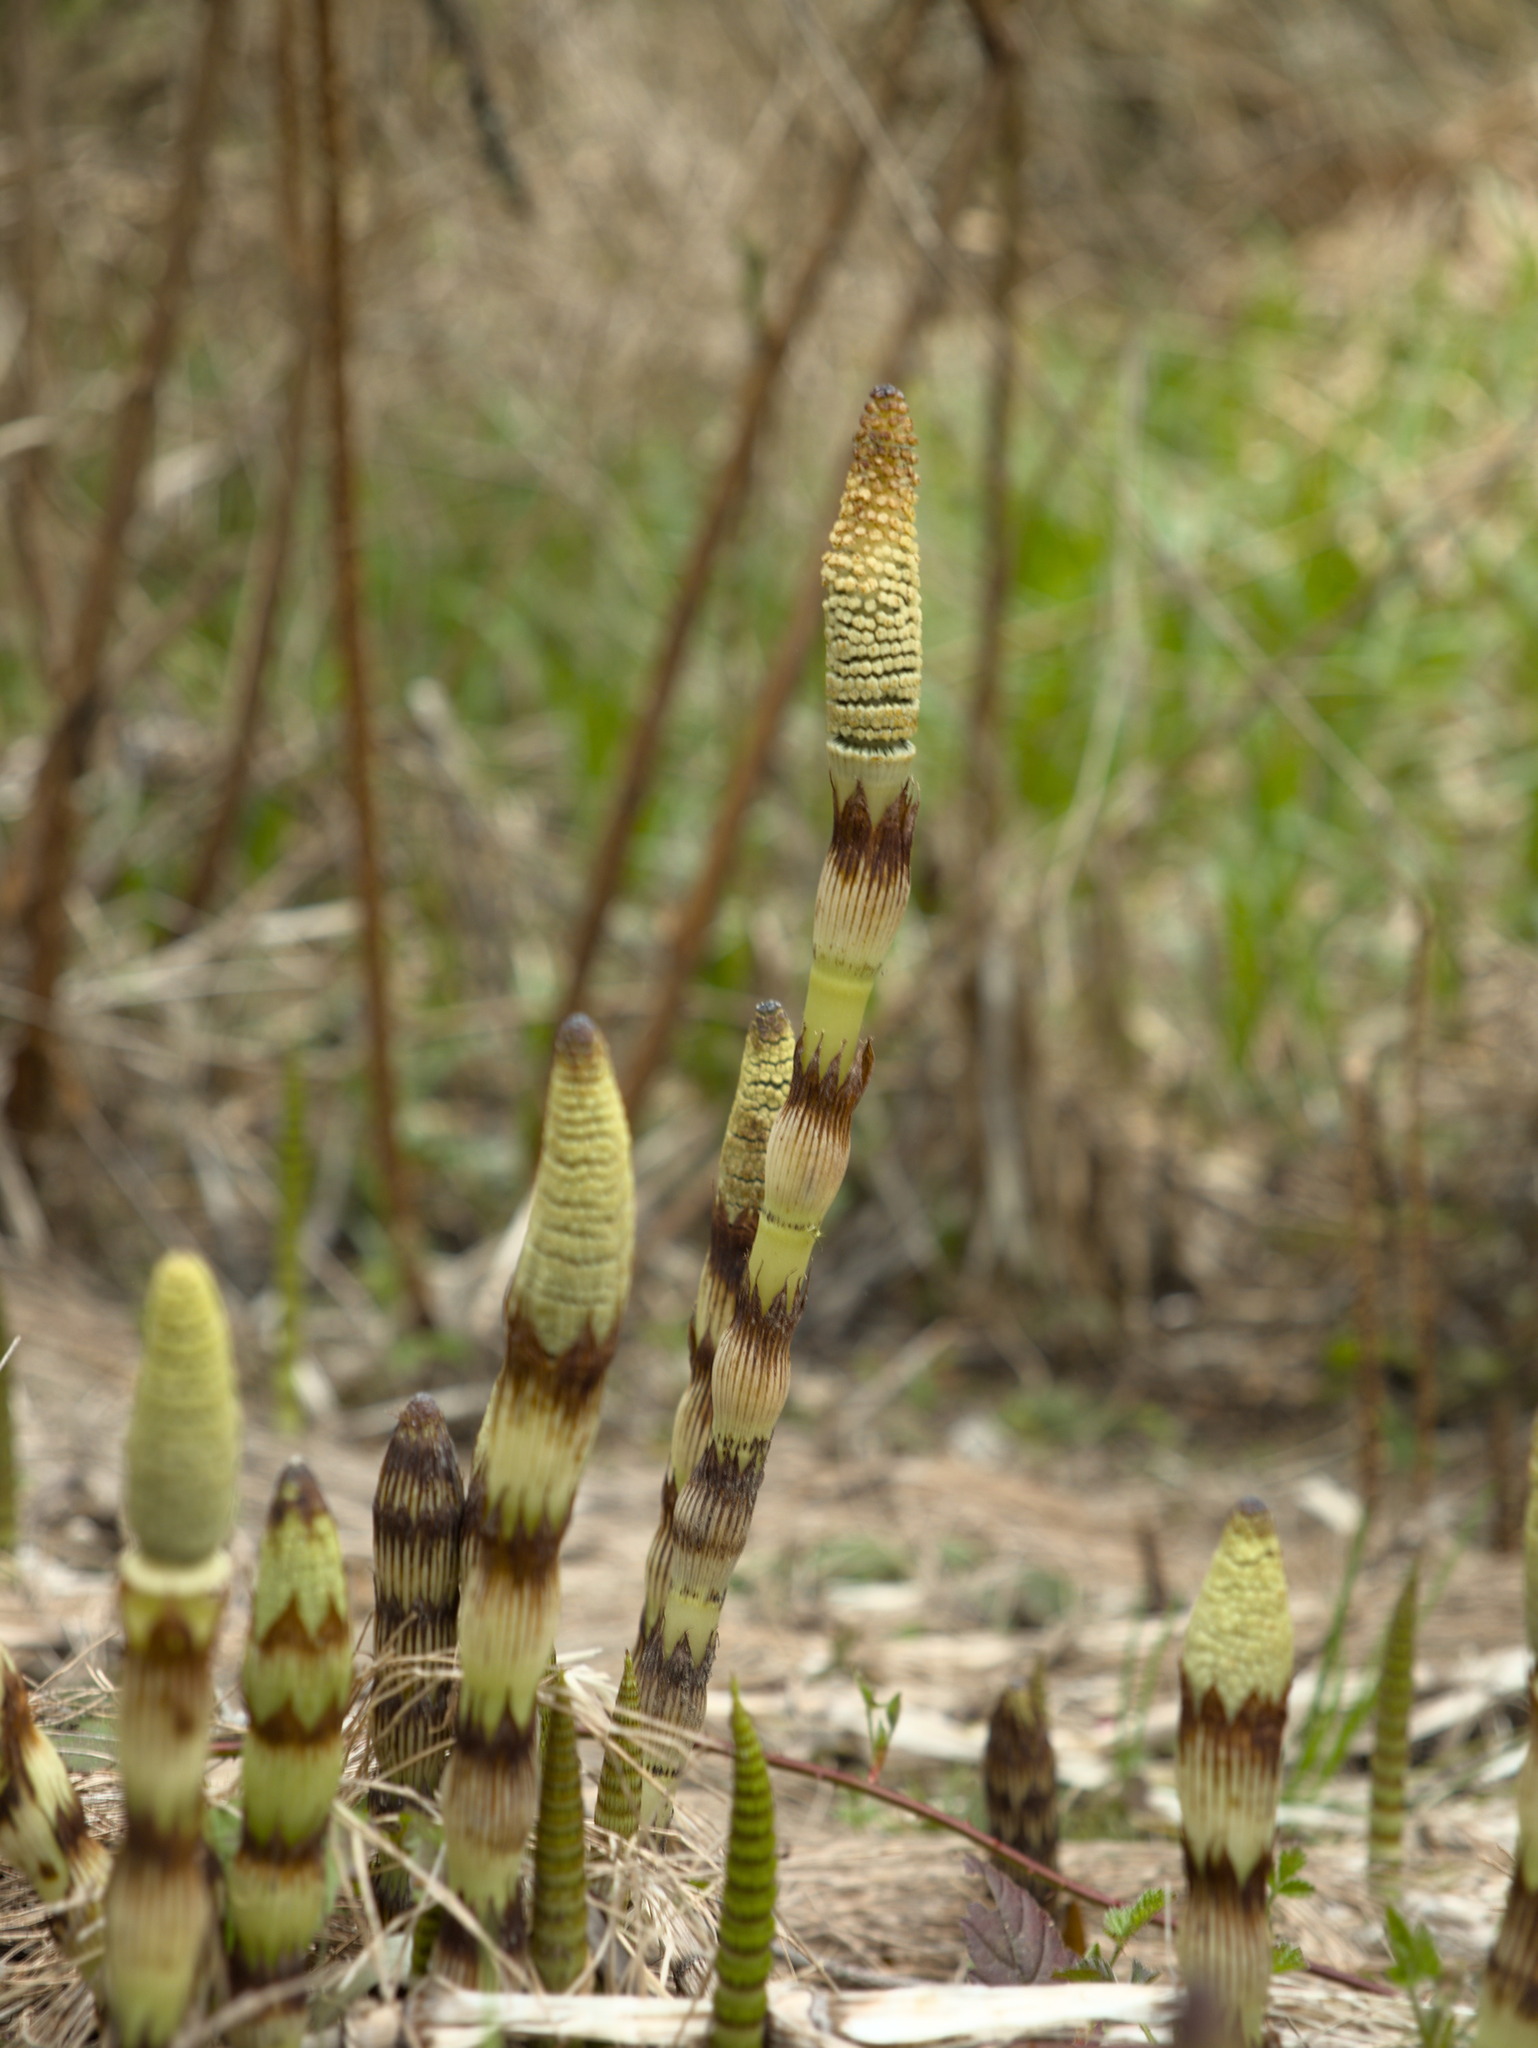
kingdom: Plantae
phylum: Tracheophyta
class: Polypodiopsida
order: Equisetales
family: Equisetaceae
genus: Equisetum
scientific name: Equisetum telmateia
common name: Great horsetail
